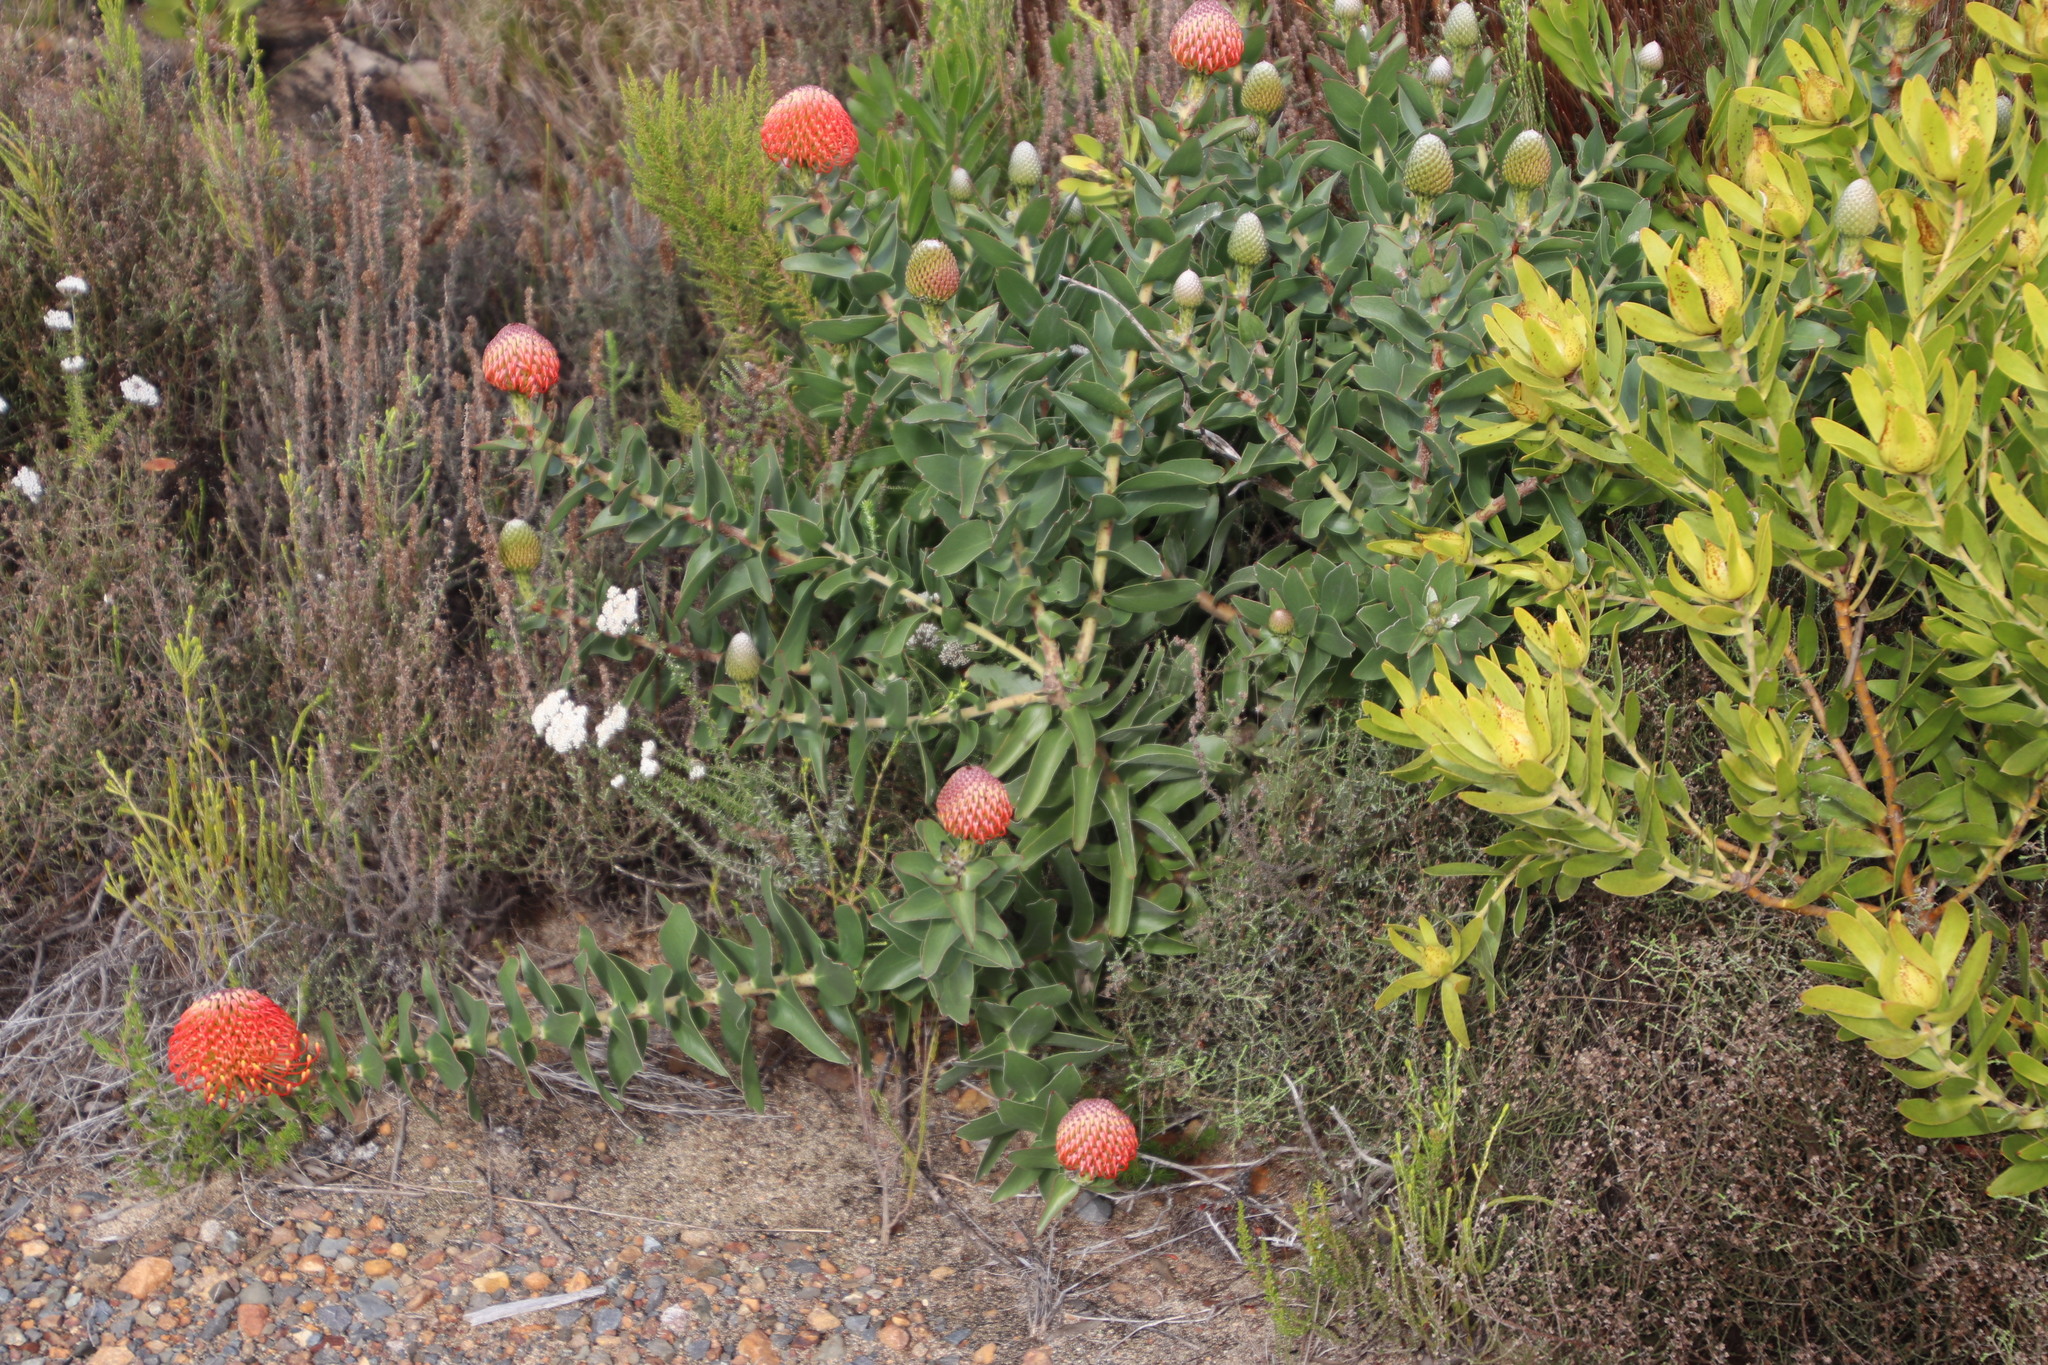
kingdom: Plantae
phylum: Tracheophyta
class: Magnoliopsida
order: Proteales
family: Proteaceae
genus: Leucospermum
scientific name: Leucospermum cordifolium
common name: Red pincushion-protea
